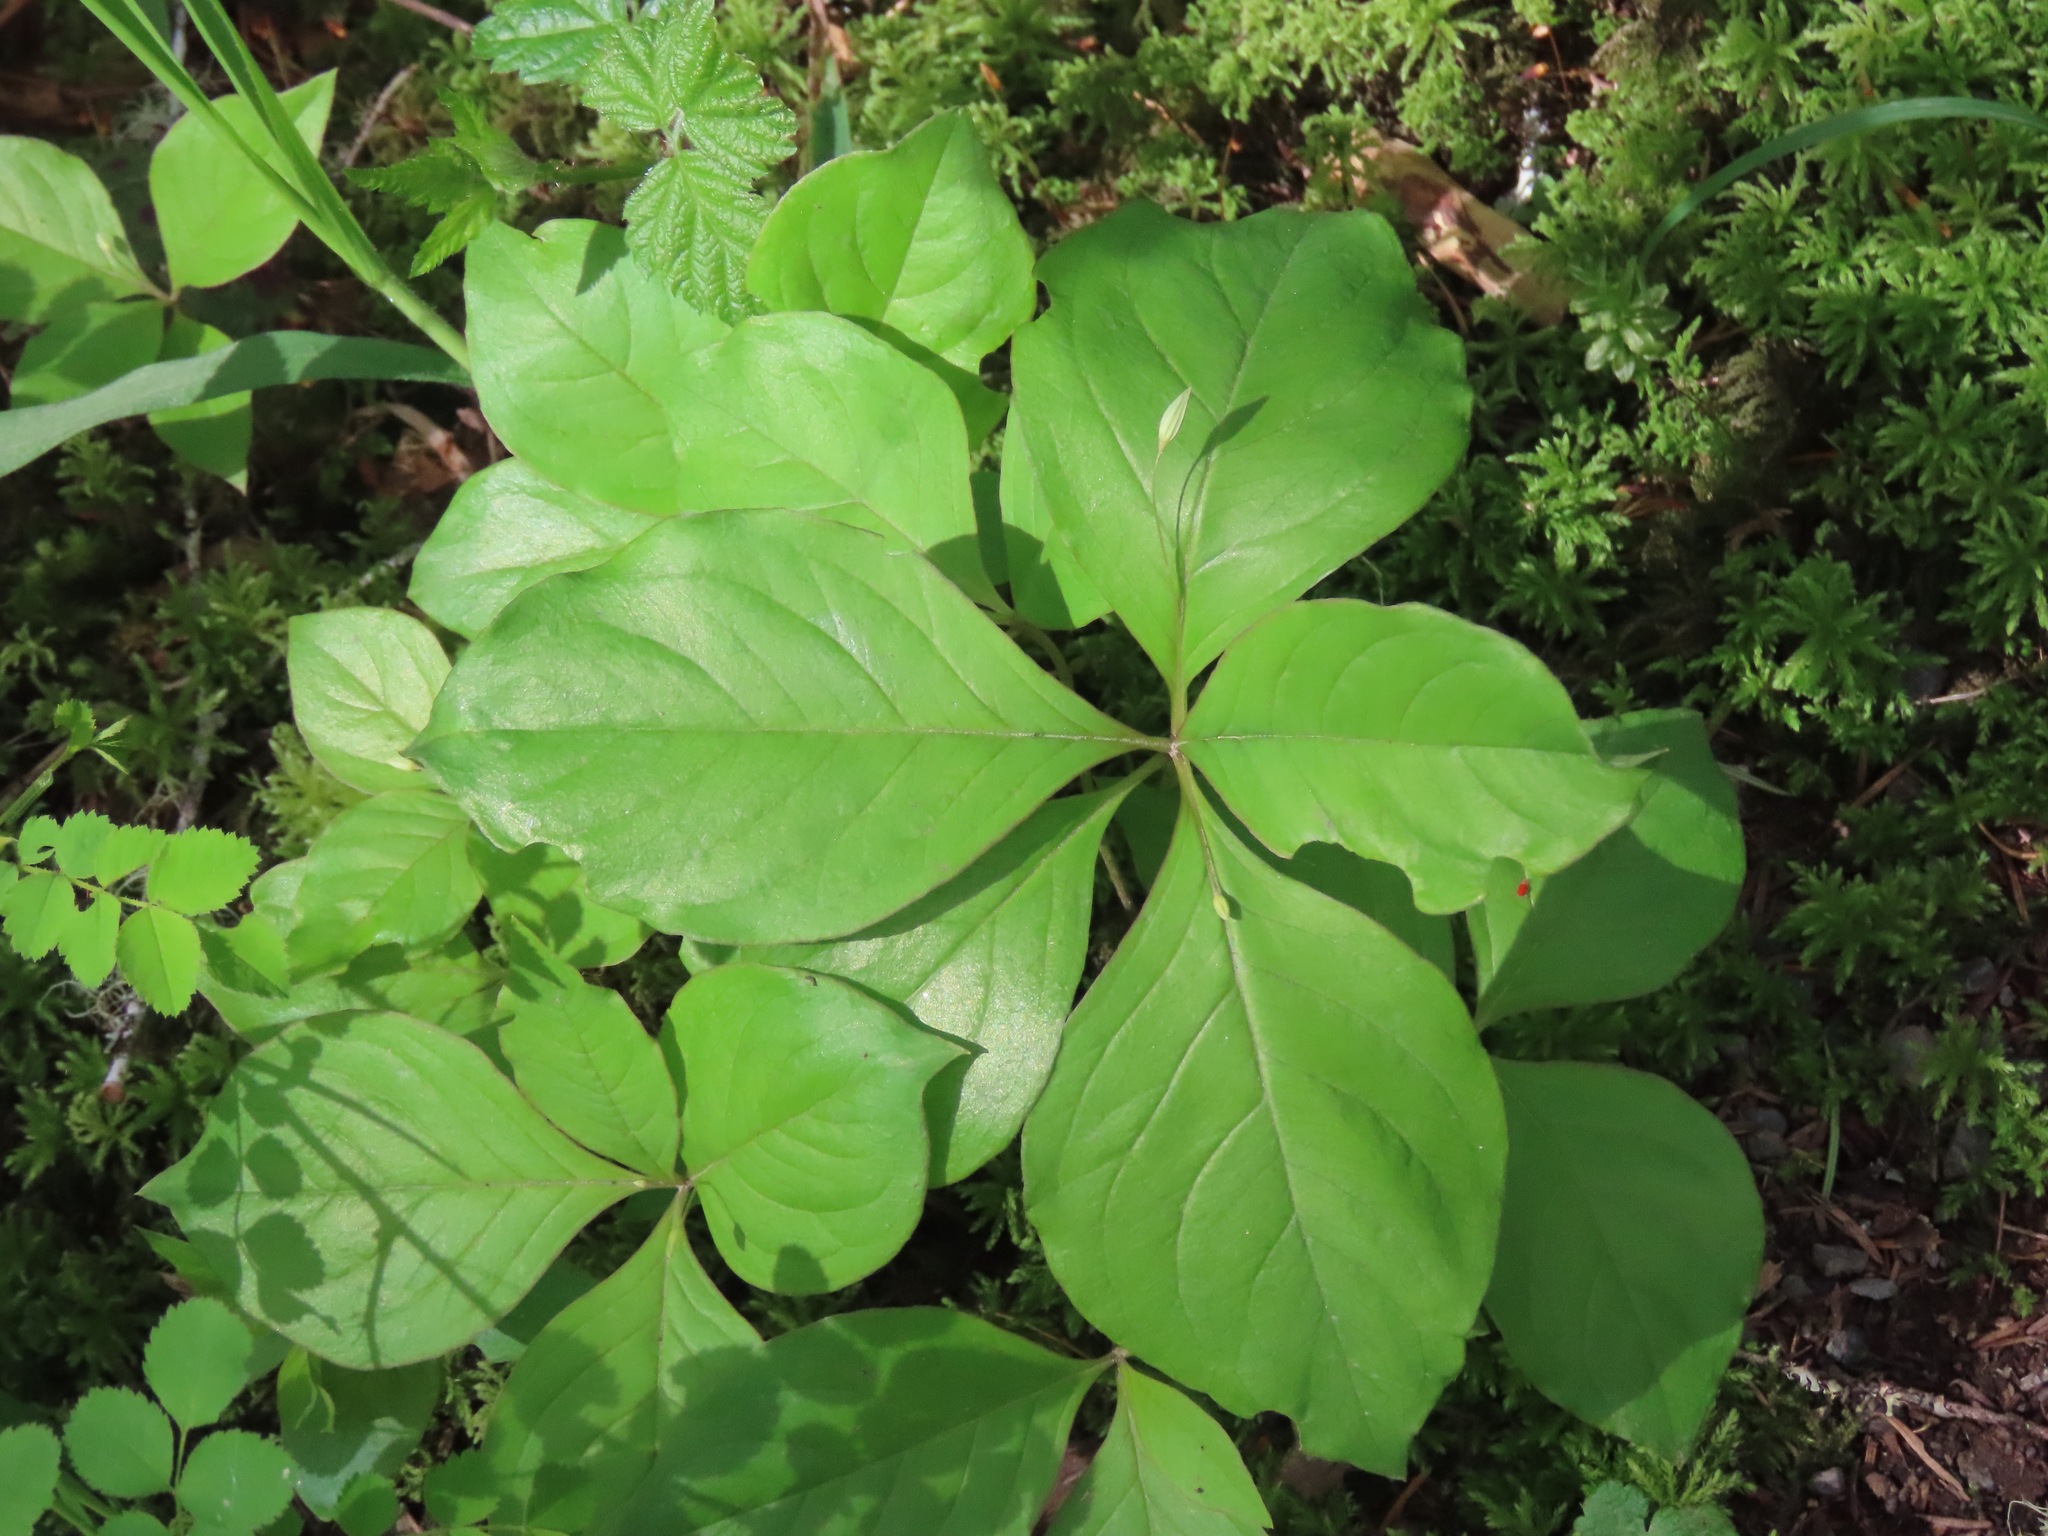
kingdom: Plantae
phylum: Tracheophyta
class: Magnoliopsida
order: Ericales
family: Primulaceae
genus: Lysimachia
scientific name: Lysimachia latifolia
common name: Pacific starflower
